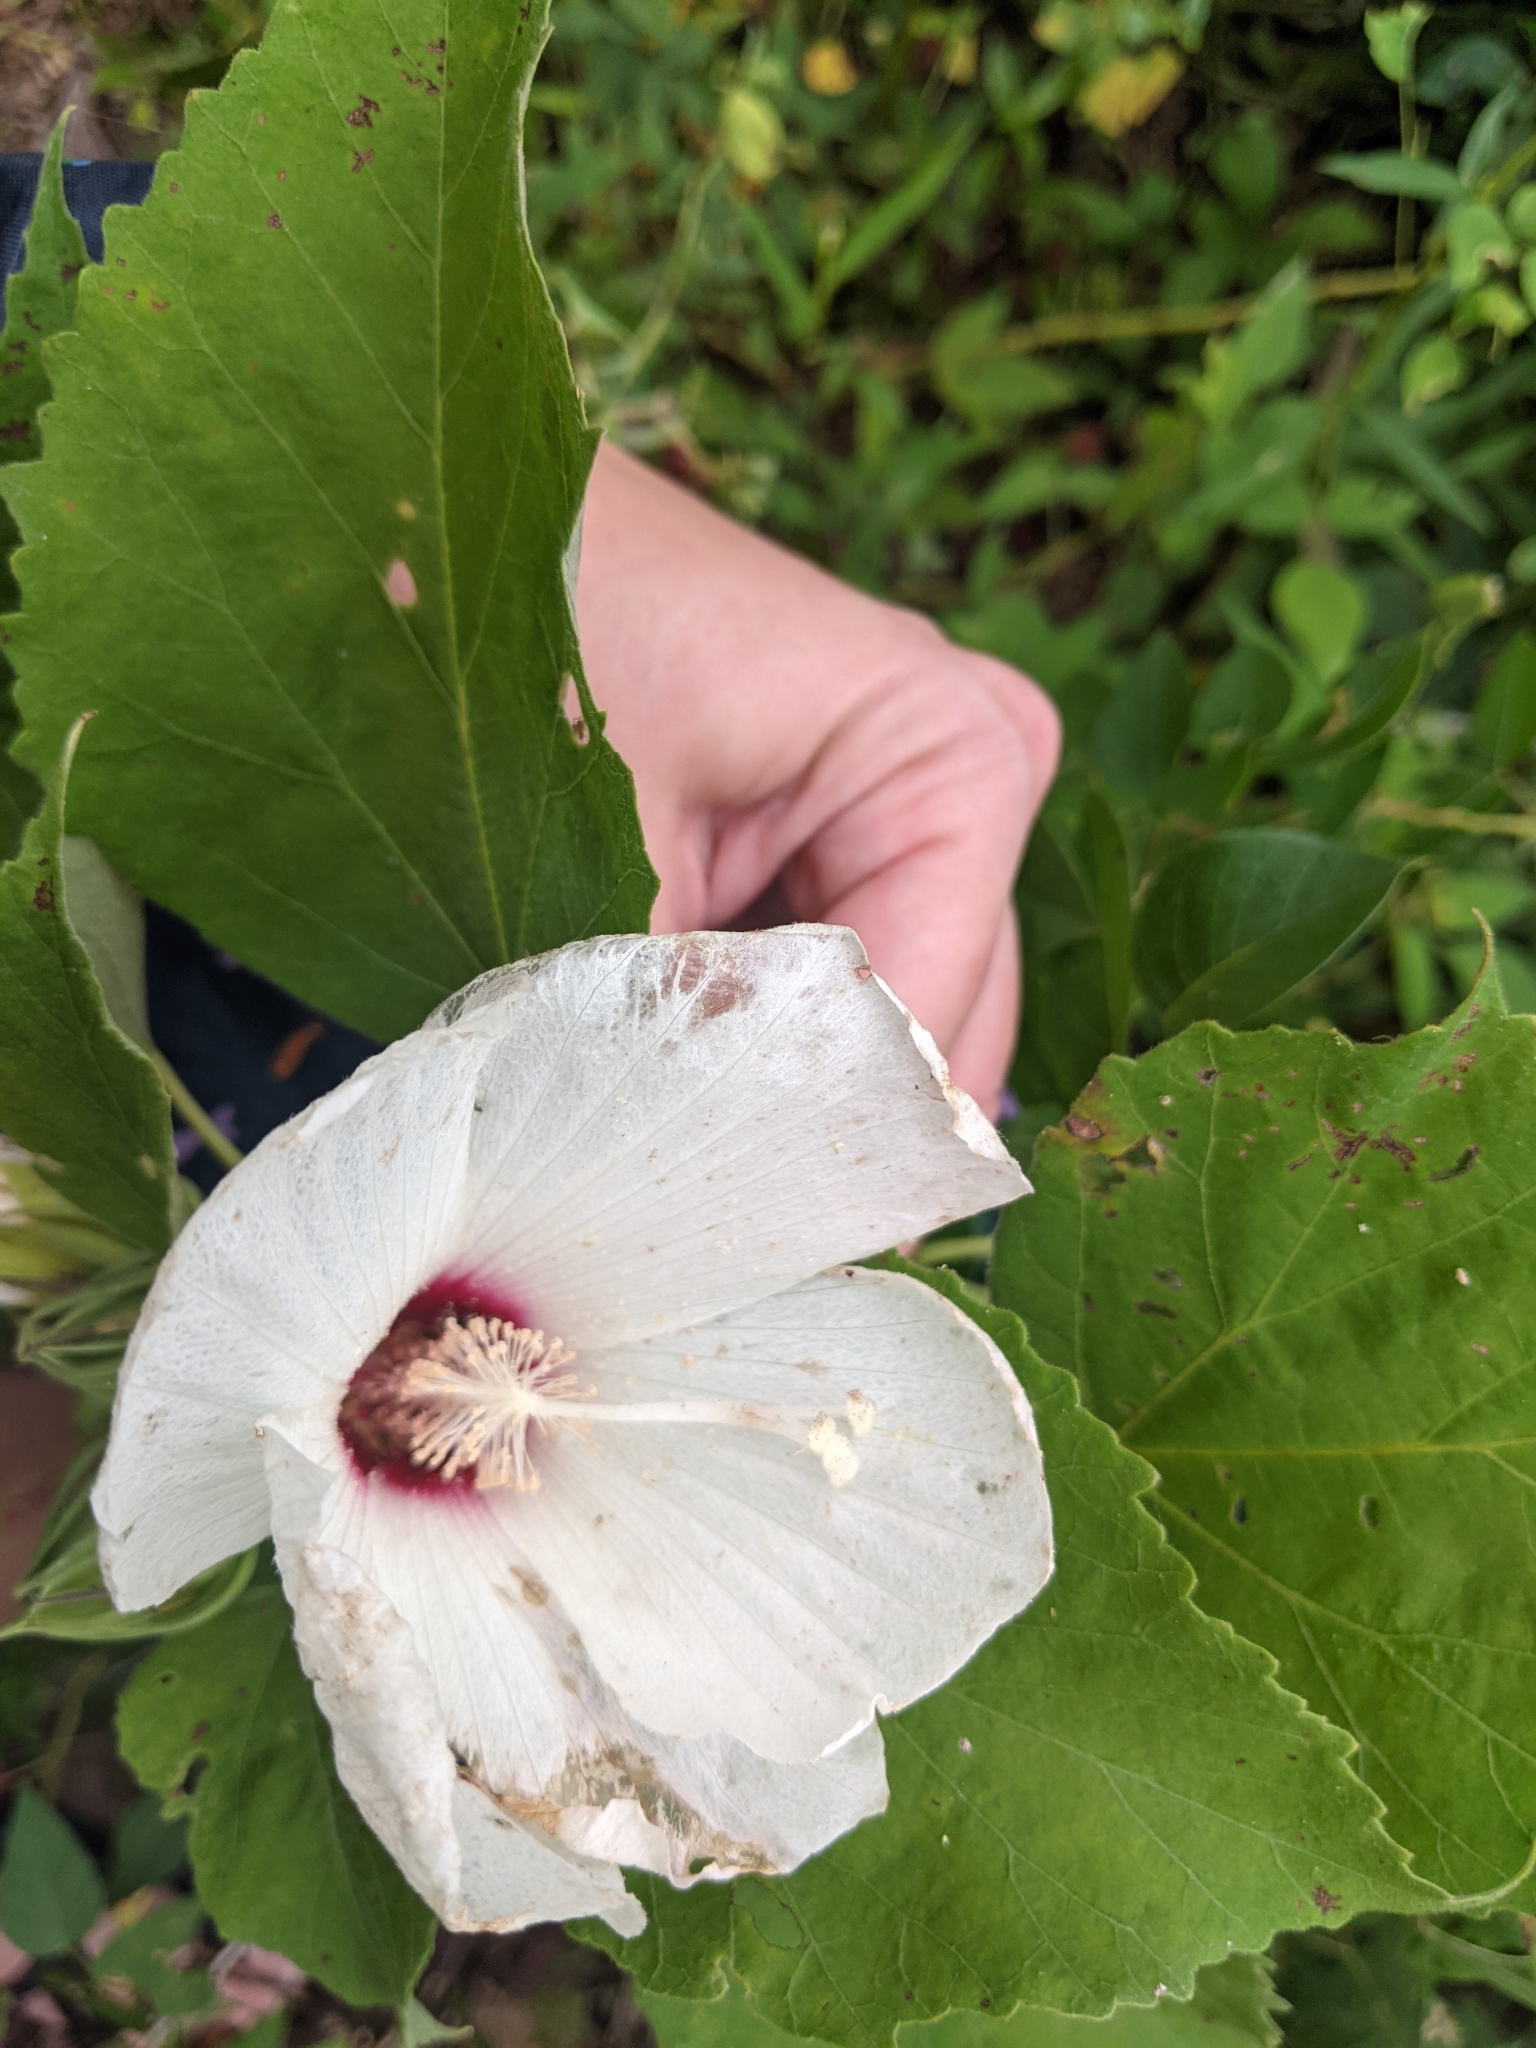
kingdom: Plantae
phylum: Tracheophyta
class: Magnoliopsida
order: Malvales
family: Malvaceae
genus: Hibiscus
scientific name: Hibiscus moscheutos
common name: Common rose-mallow
